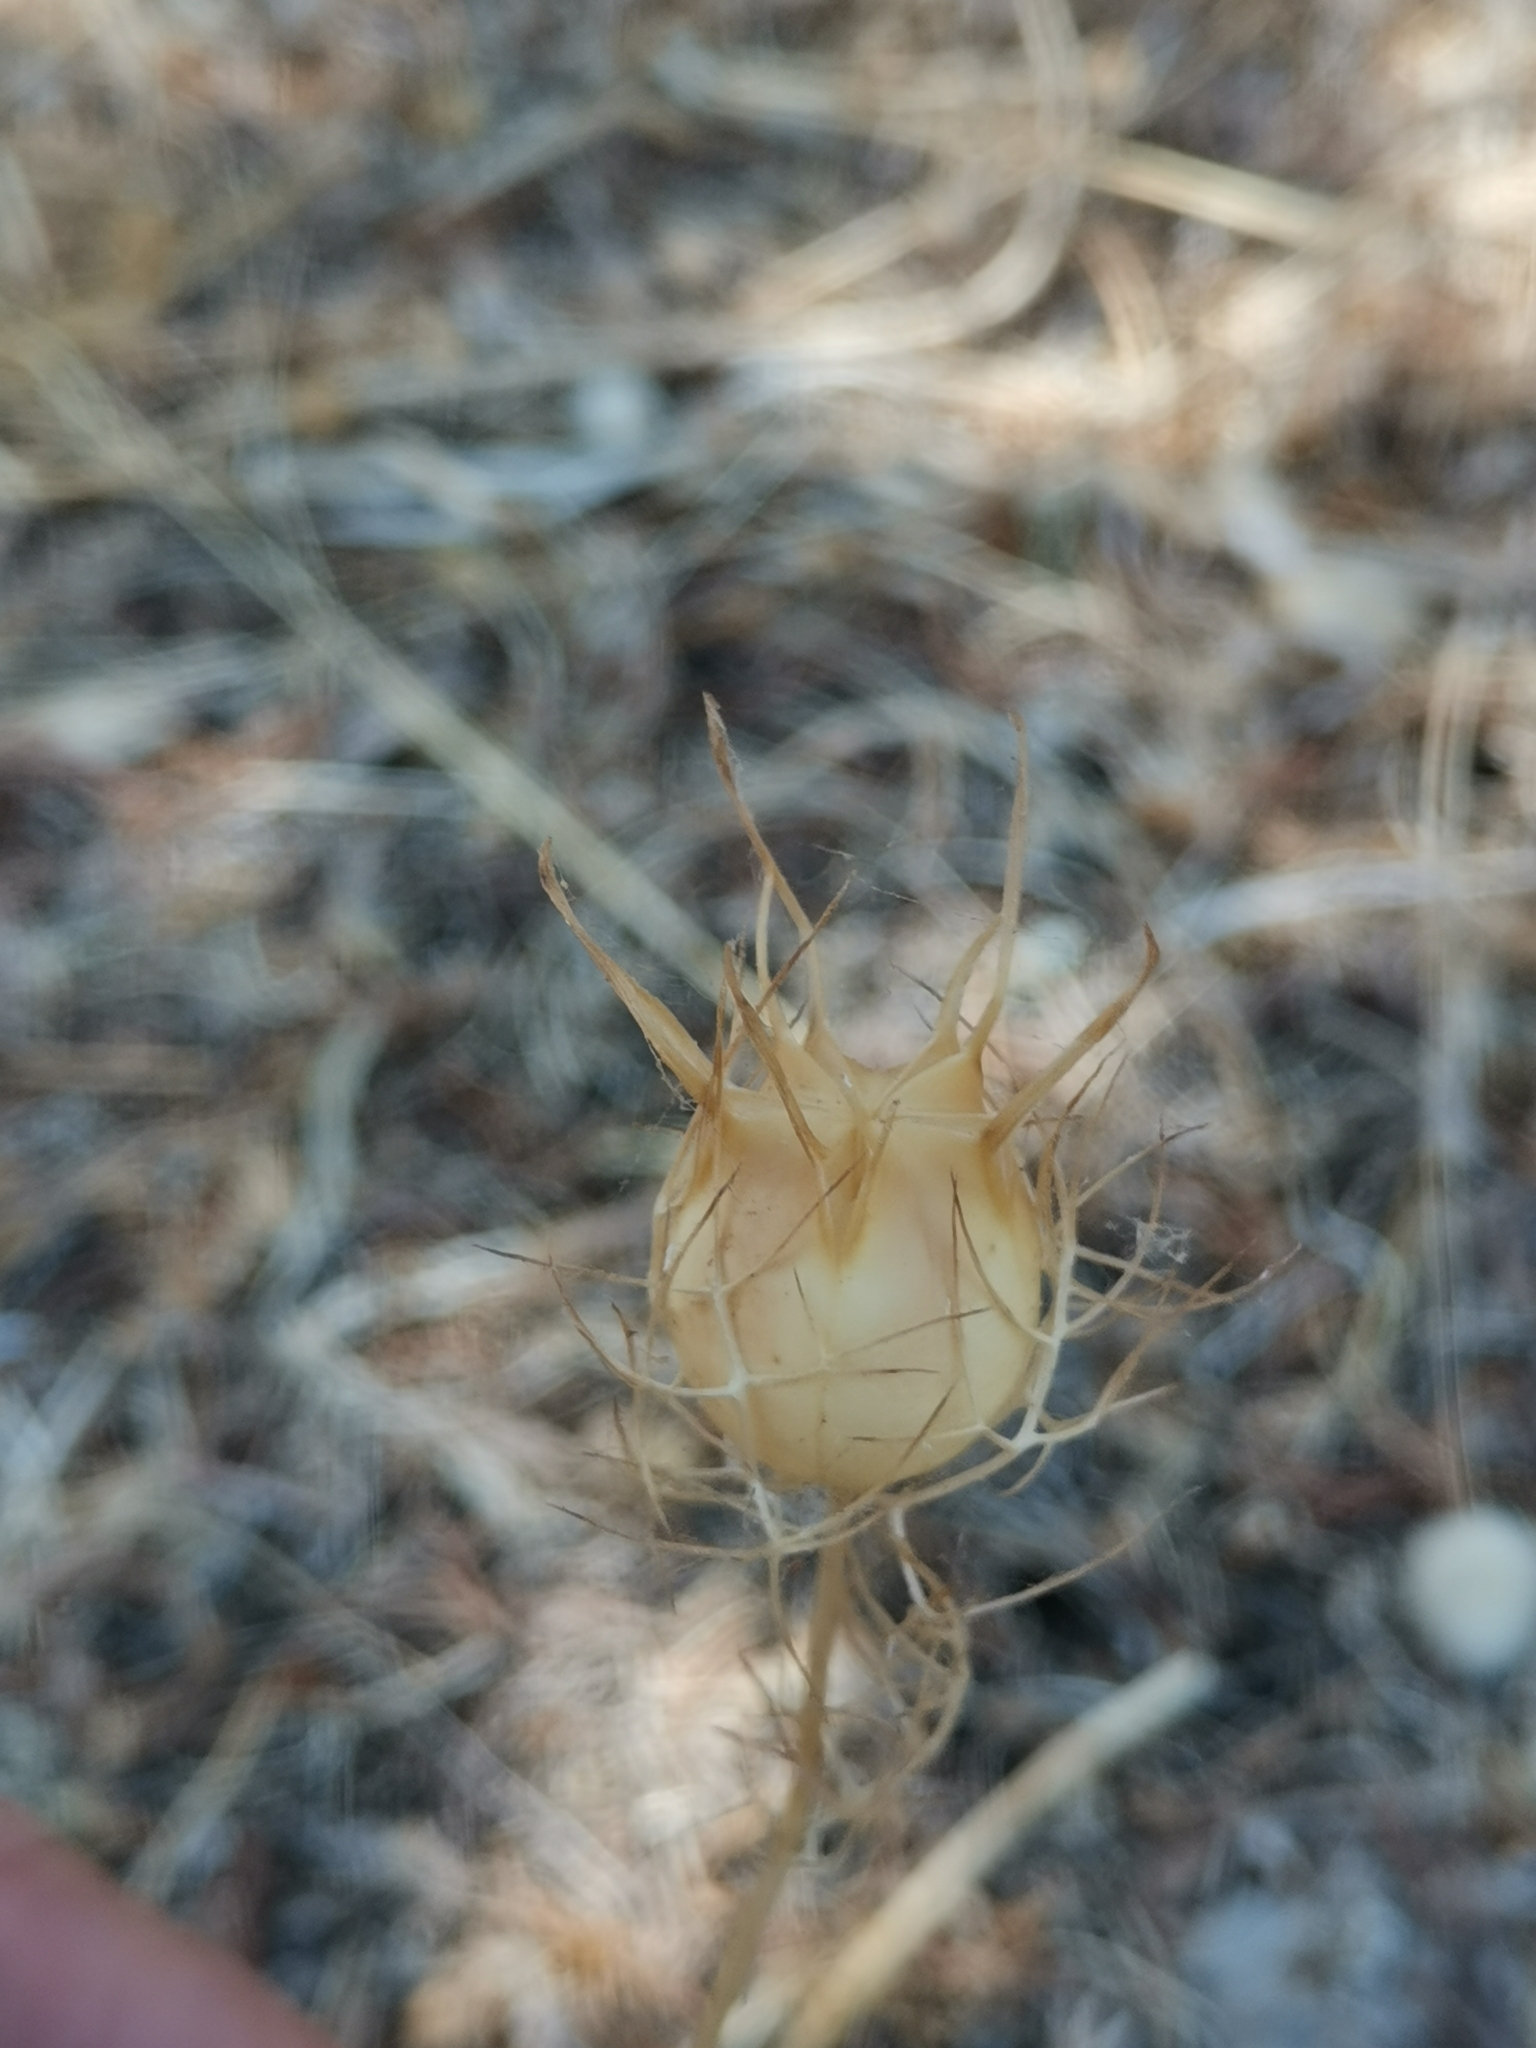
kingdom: Plantae
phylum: Tracheophyta
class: Magnoliopsida
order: Ranunculales
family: Ranunculaceae
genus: Nigella
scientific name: Nigella damascena
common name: Love-in-a-mist
